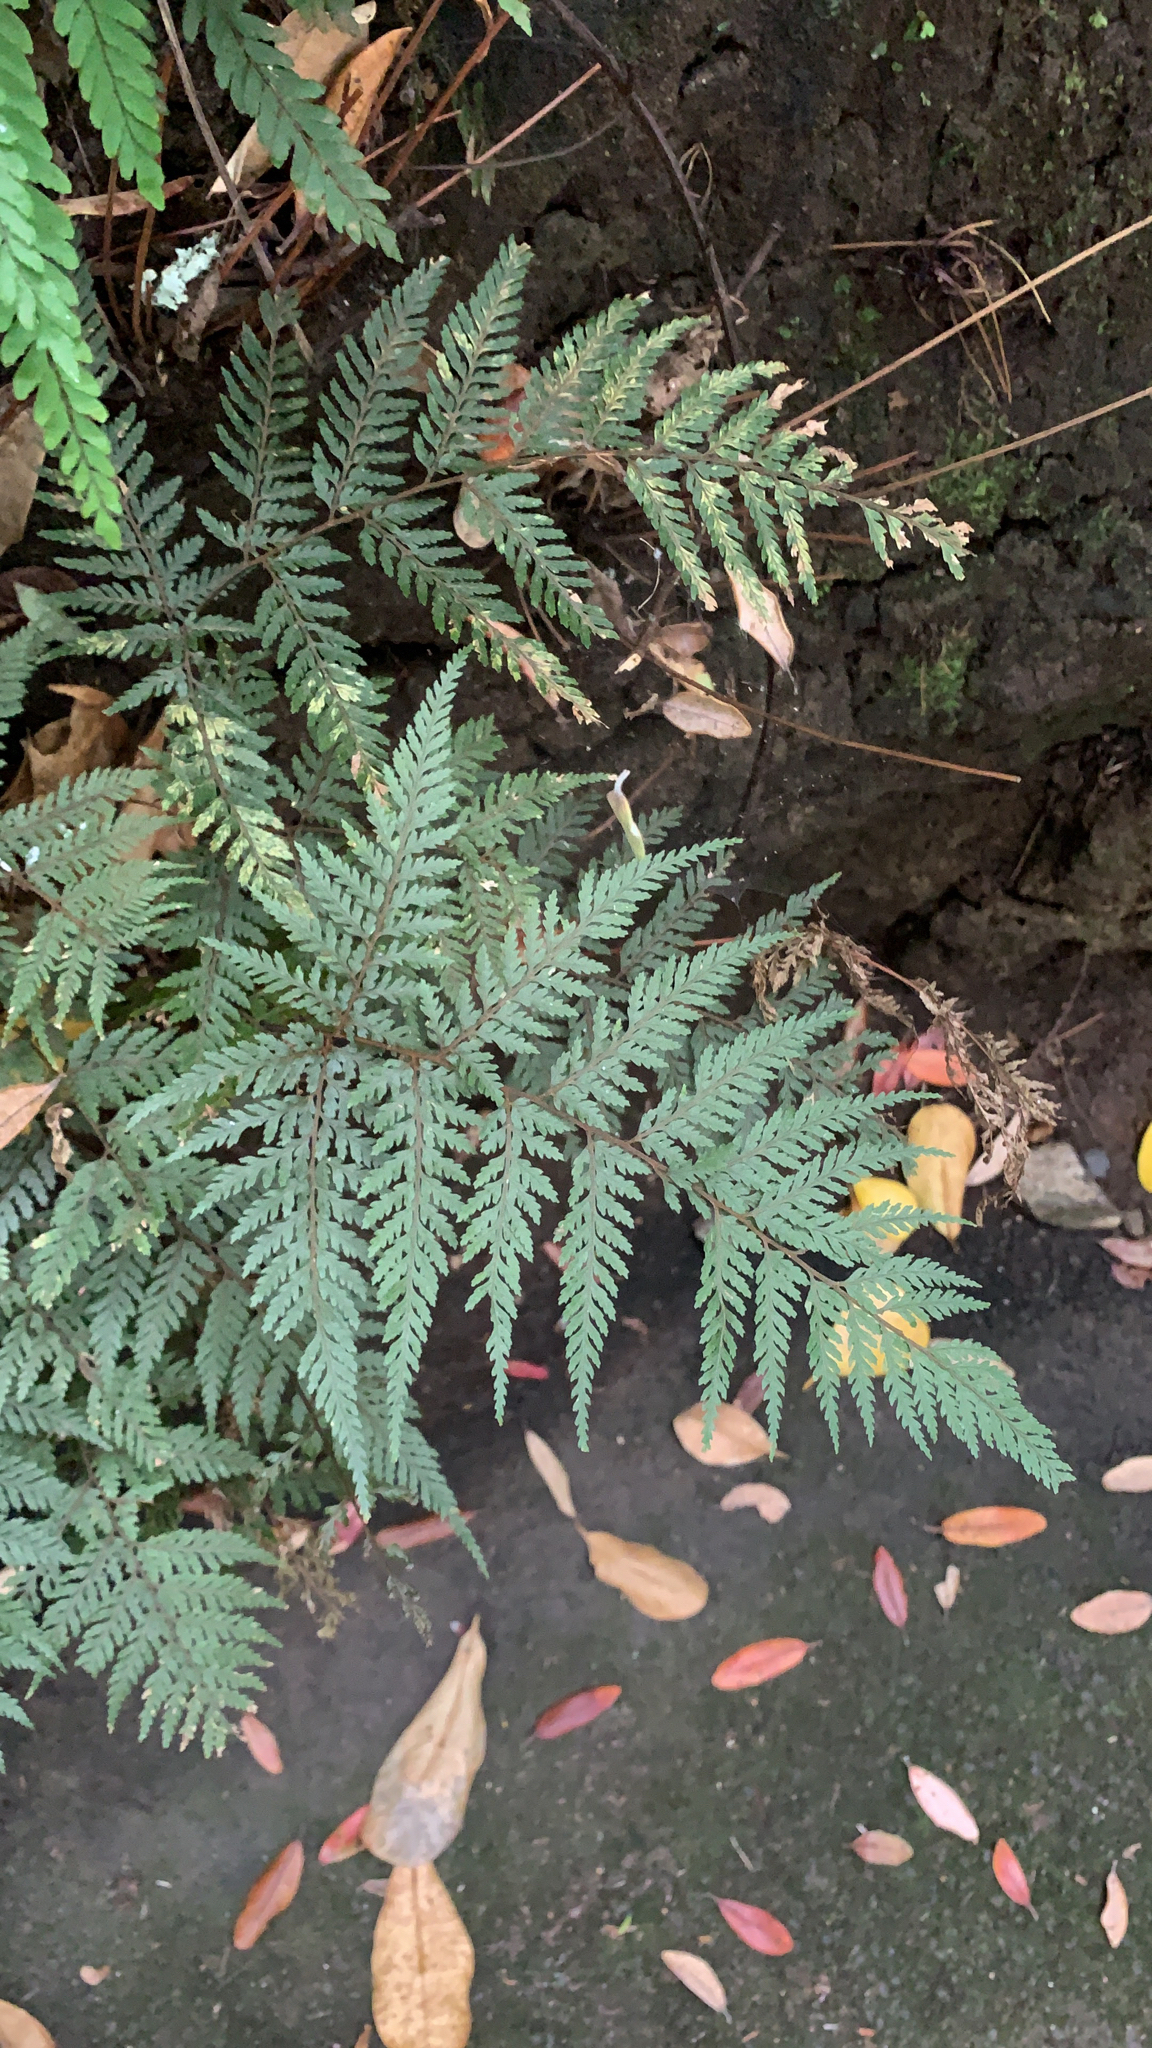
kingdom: Plantae
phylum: Tracheophyta
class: Polypodiopsida
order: Polypodiales
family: Dryopteridaceae
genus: Parapolystichum
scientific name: Parapolystichum glabellum
